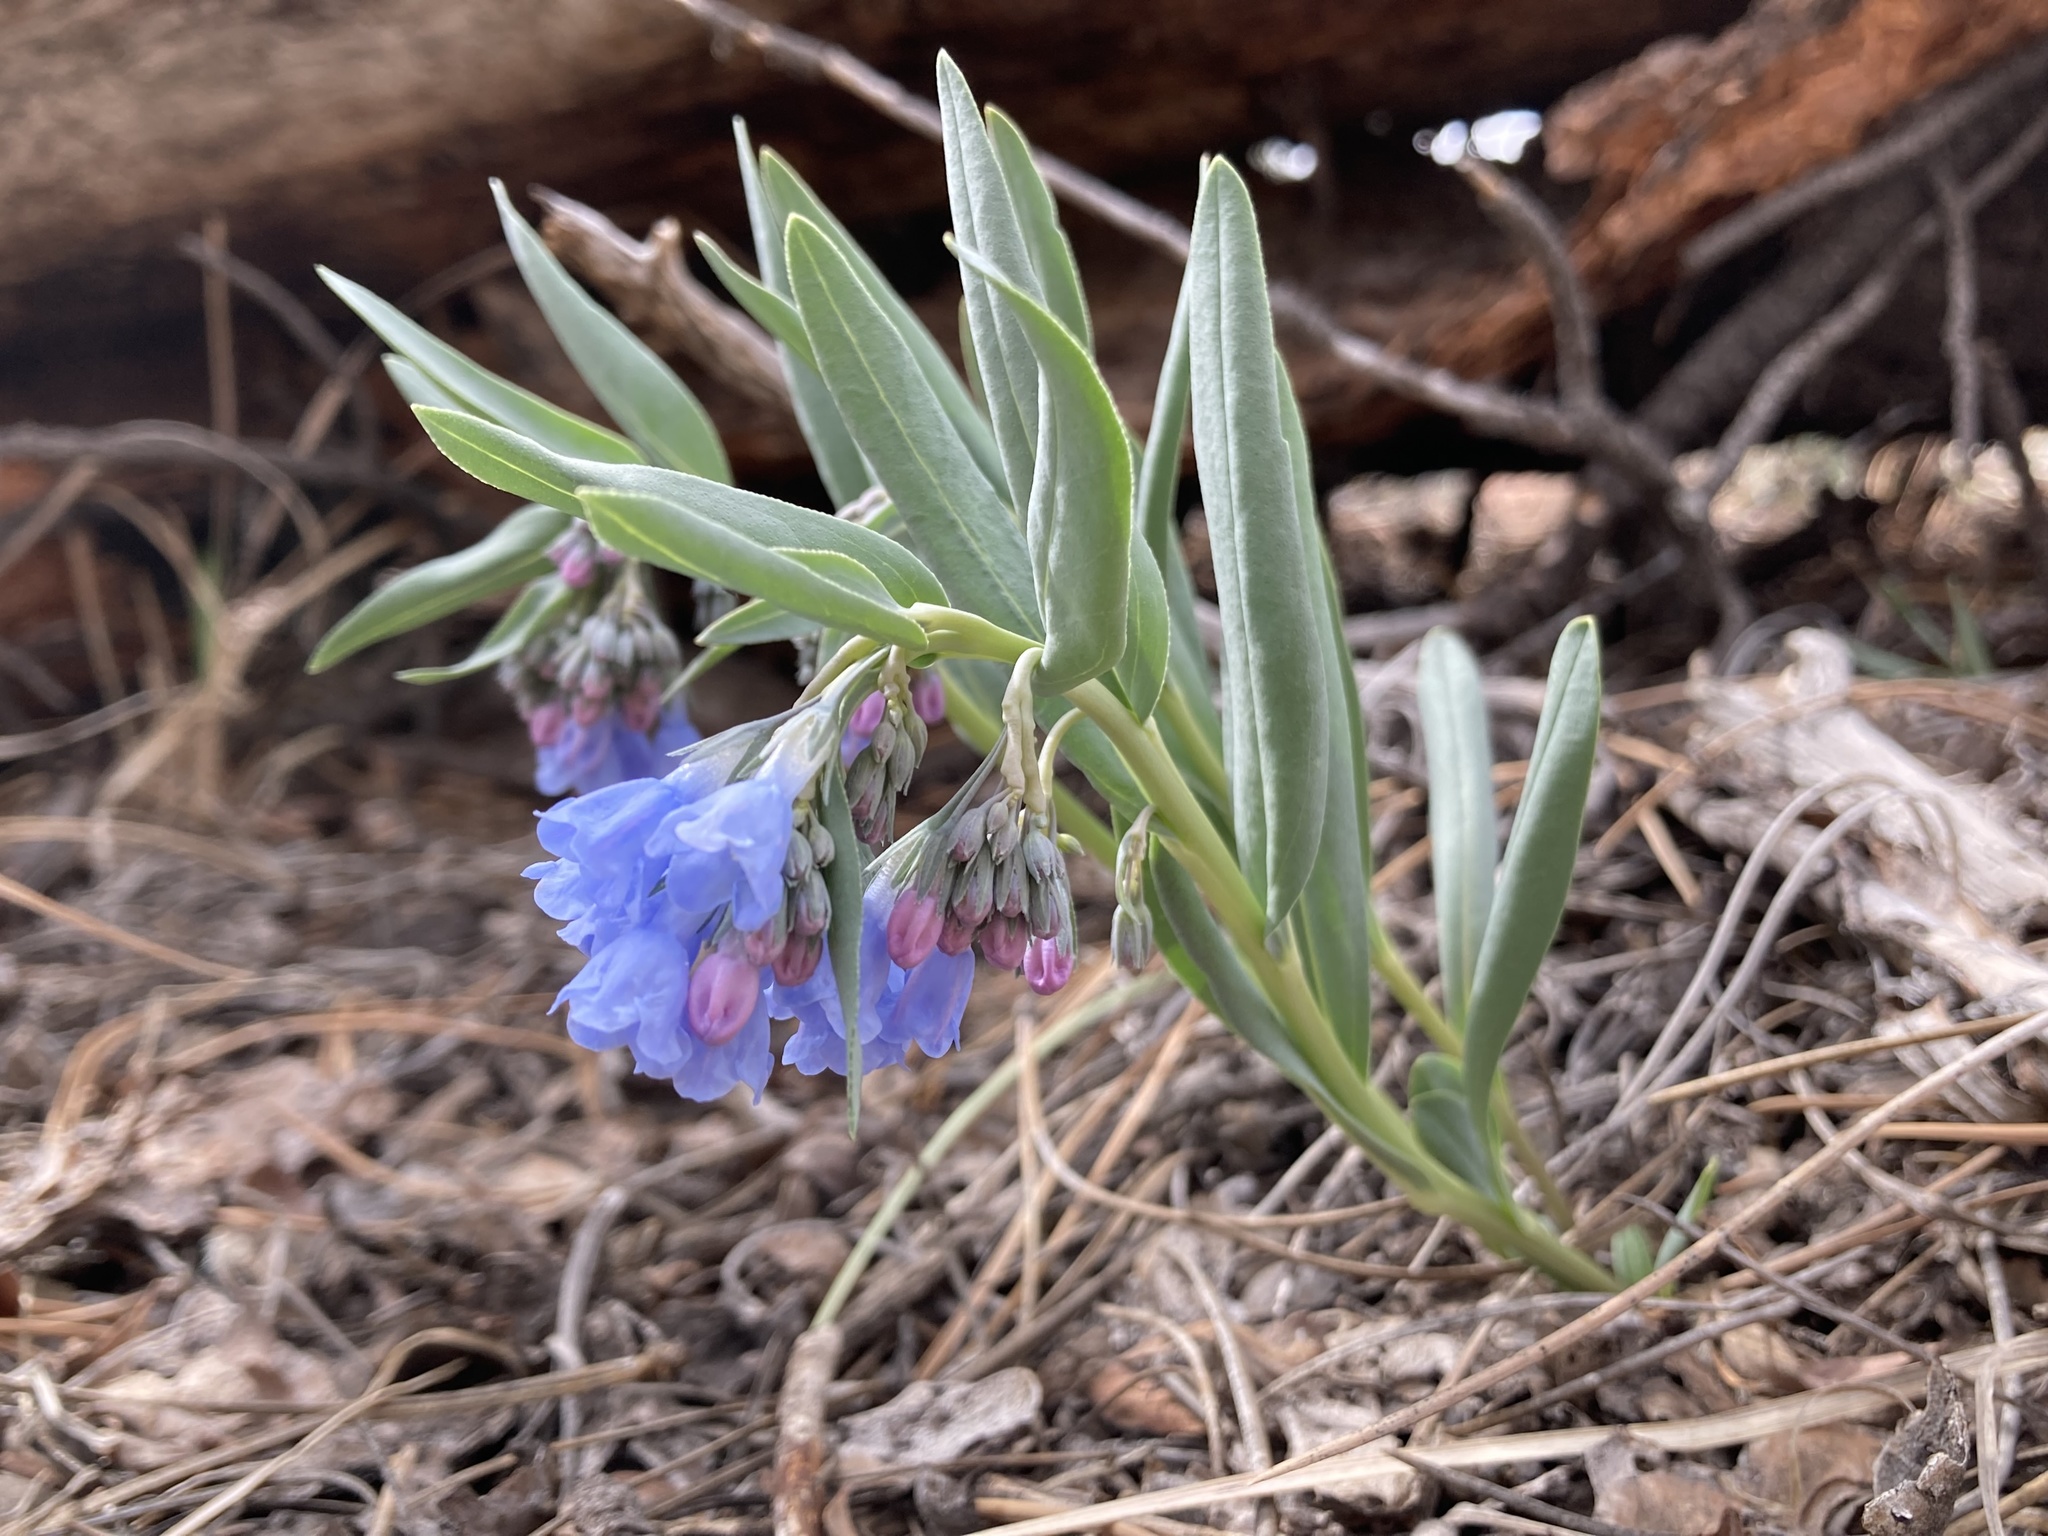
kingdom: Plantae
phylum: Tracheophyta
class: Magnoliopsida
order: Boraginales
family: Boraginaceae
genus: Mertensia
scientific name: Mertensia lanceolata
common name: Lance-leaved bluebells
